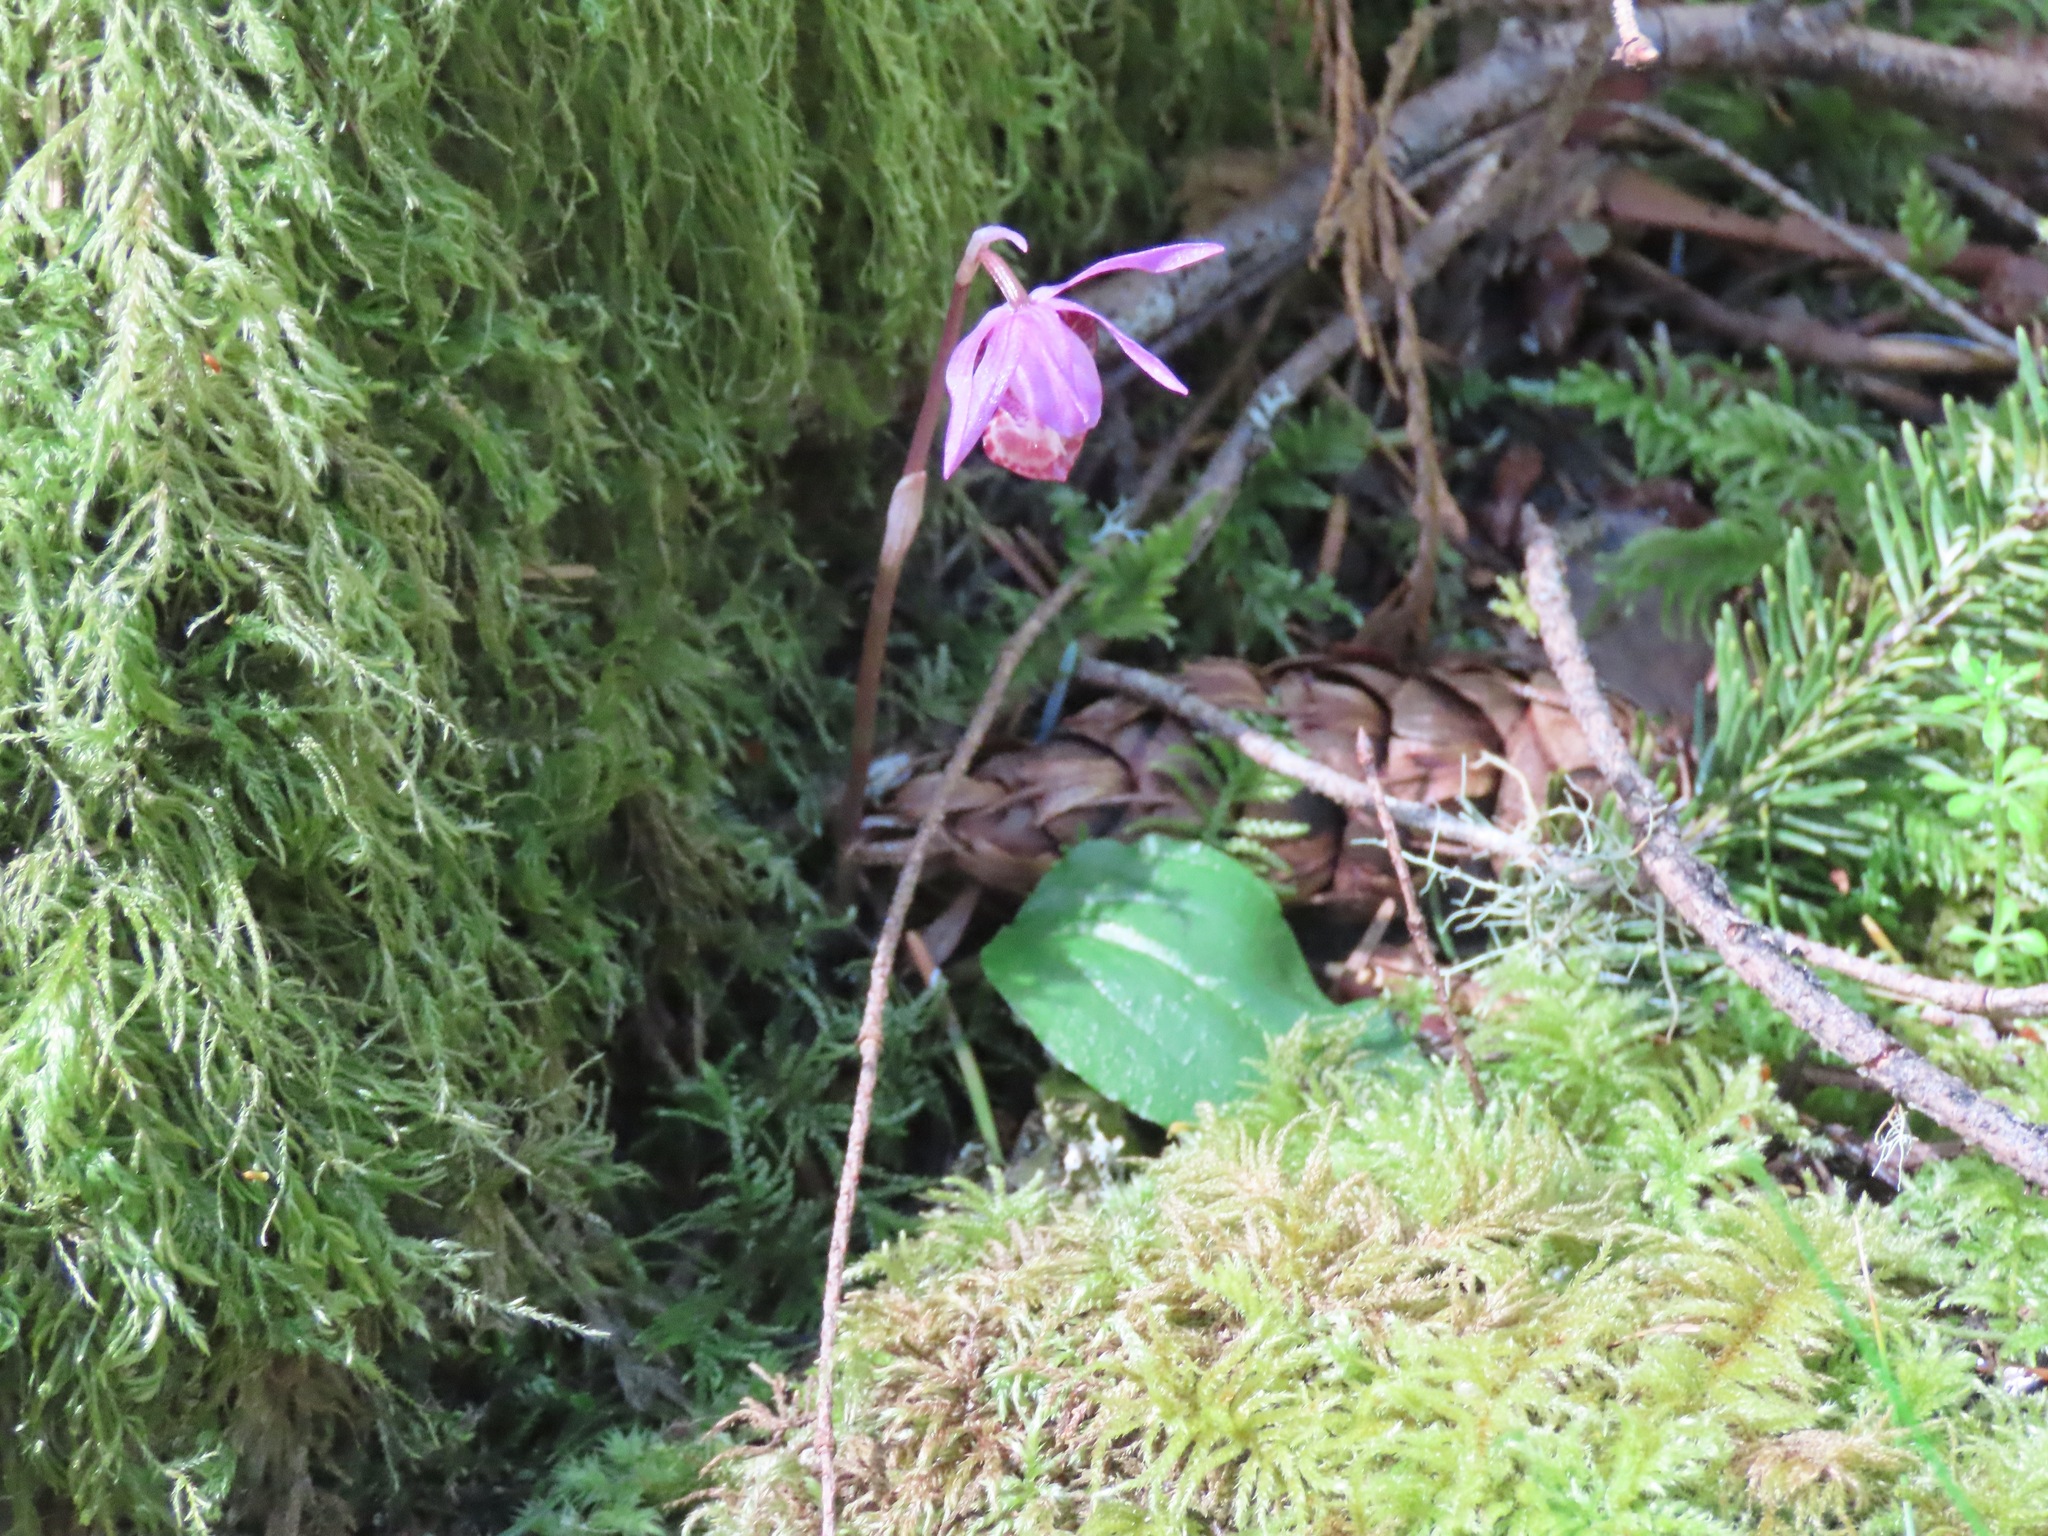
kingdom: Plantae
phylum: Tracheophyta
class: Liliopsida
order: Asparagales
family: Orchidaceae
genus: Calypso
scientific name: Calypso bulbosa
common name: Calypso
